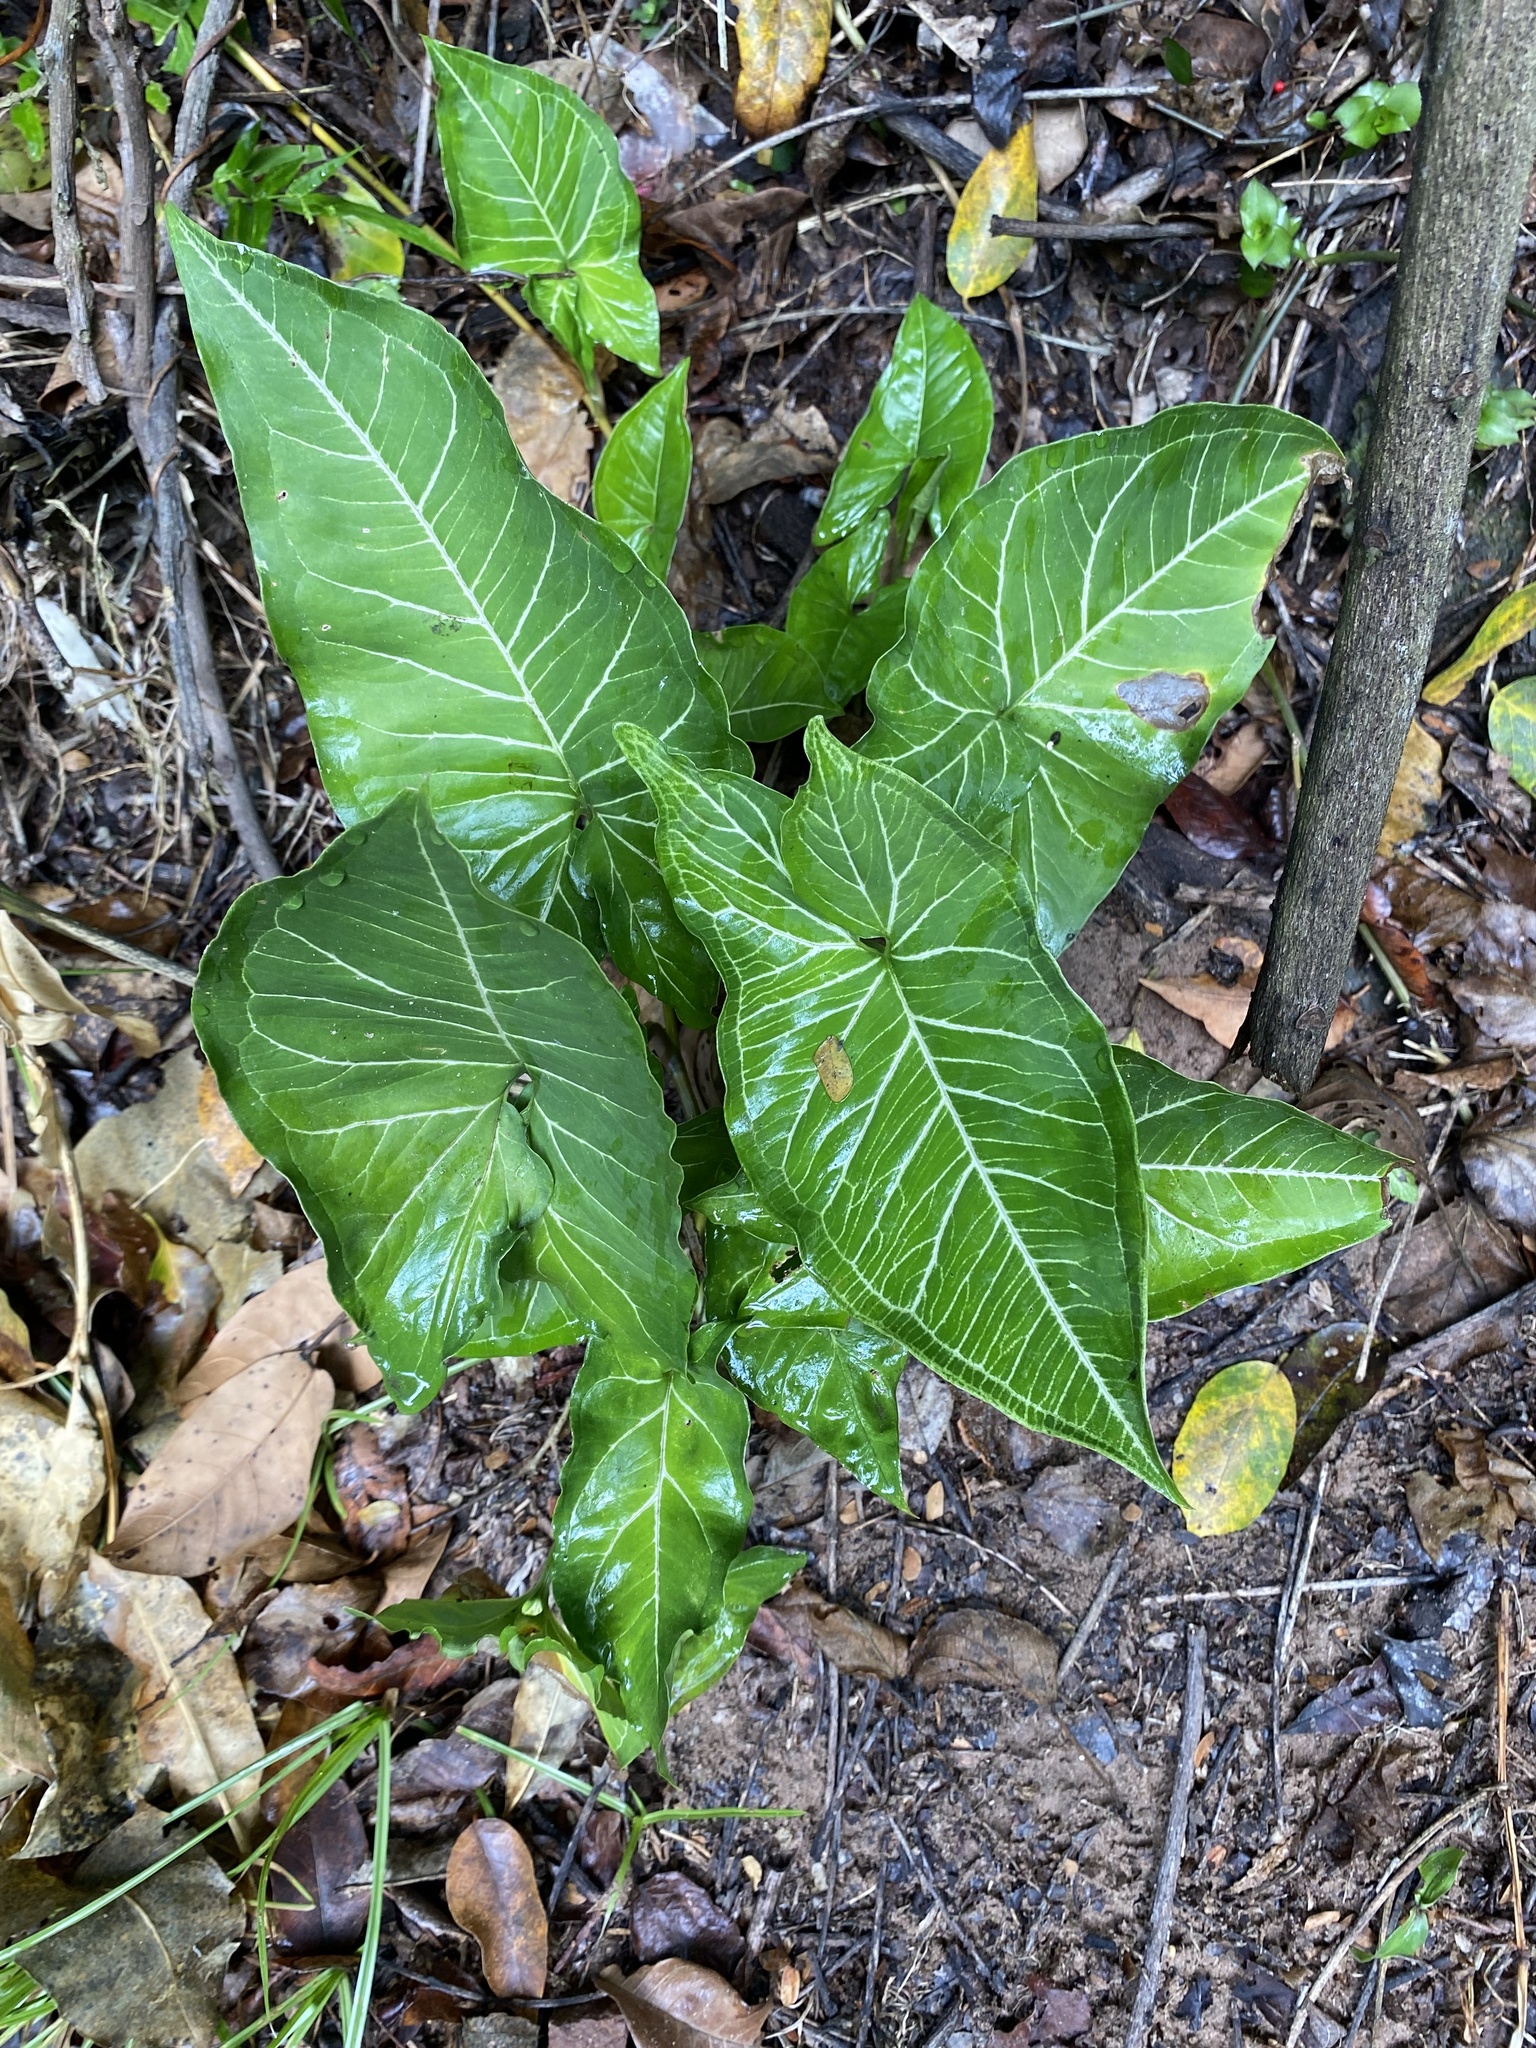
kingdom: Plantae
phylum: Tracheophyta
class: Liliopsida
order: Alismatales
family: Araceae
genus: Syngonium
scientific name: Syngonium podophyllum
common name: American evergreen
